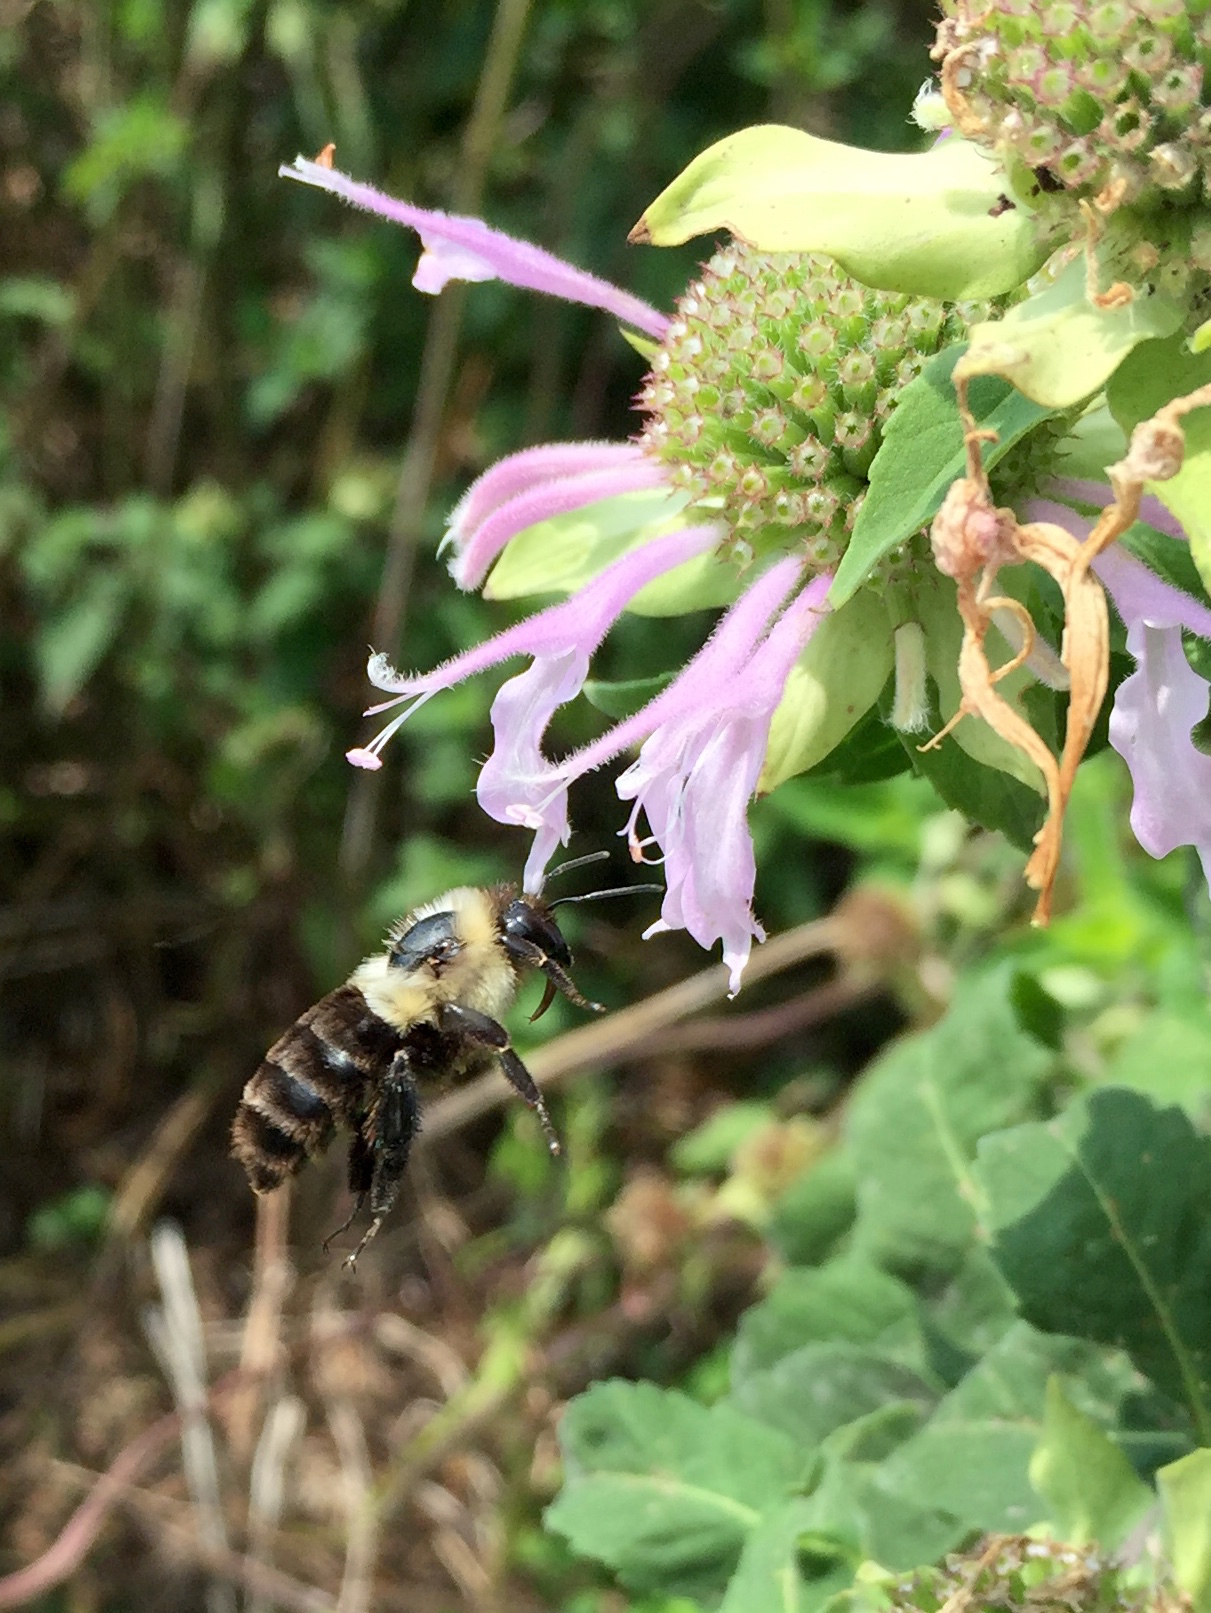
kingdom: Animalia
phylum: Arthropoda
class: Insecta
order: Hymenoptera
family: Apidae
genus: Bombus
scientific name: Bombus impatiens
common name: Common eastern bumble bee
